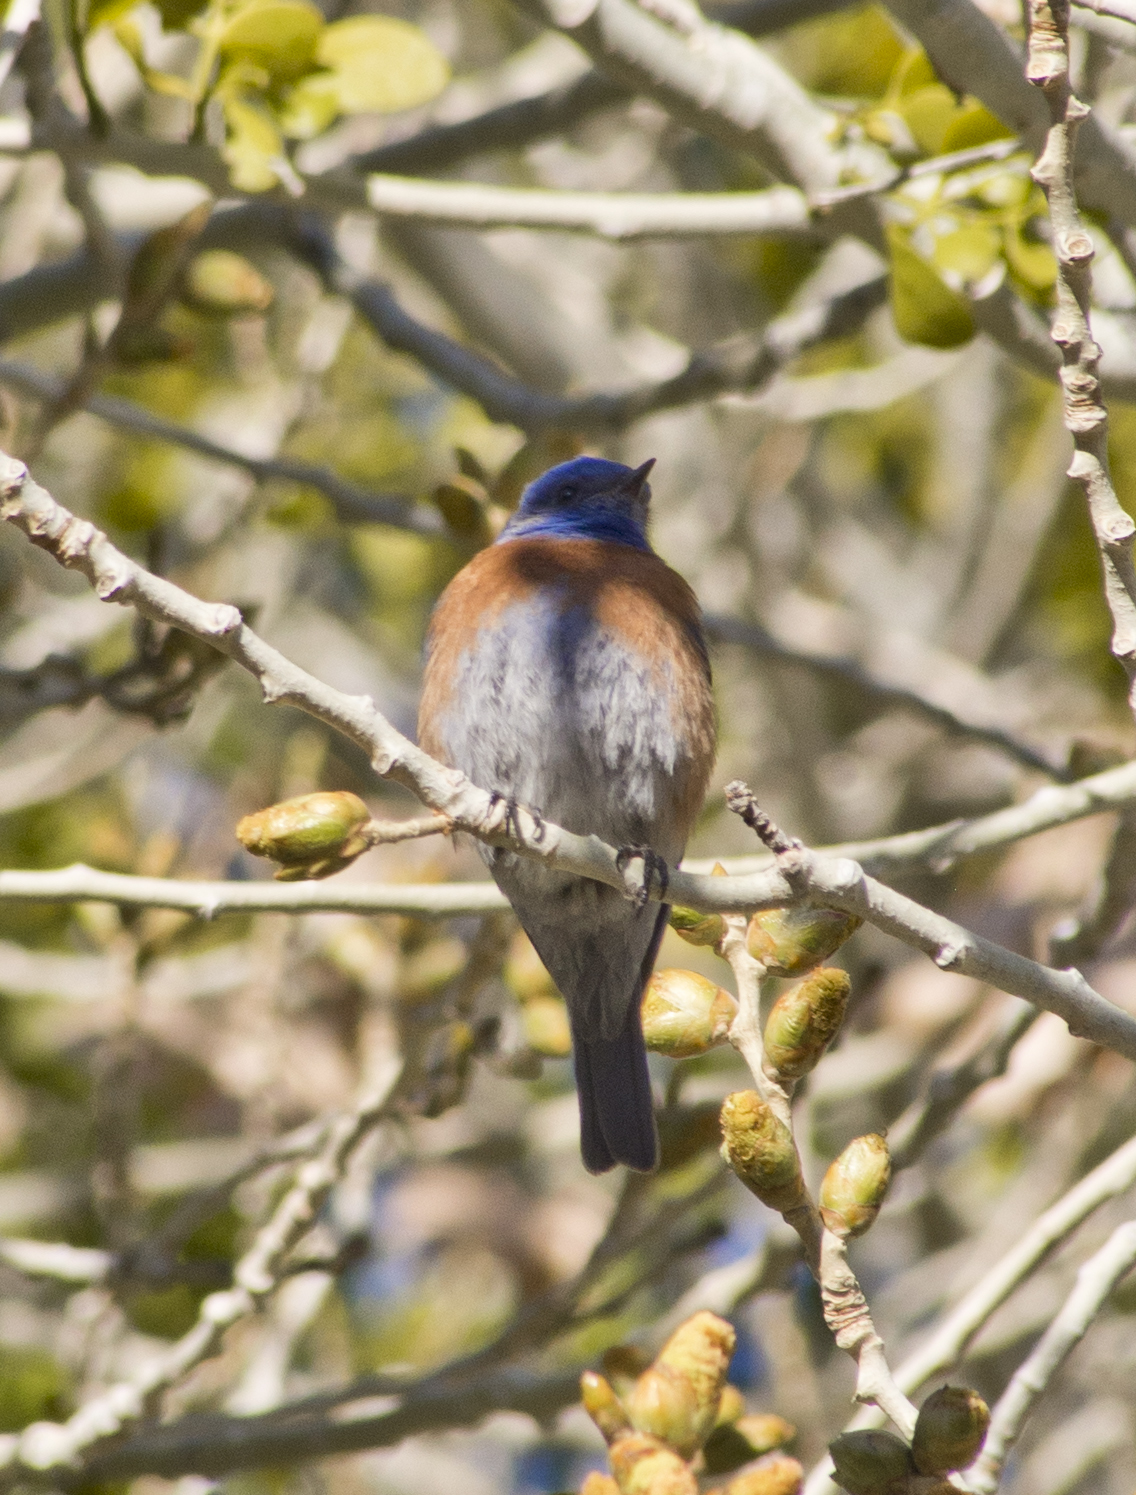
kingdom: Animalia
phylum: Chordata
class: Aves
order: Passeriformes
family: Turdidae
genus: Sialia
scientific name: Sialia mexicana
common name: Western bluebird
